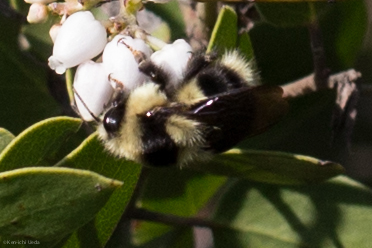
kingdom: Animalia
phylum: Arthropoda
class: Insecta
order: Hymenoptera
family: Apidae
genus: Bombus
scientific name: Bombus melanopygus
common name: Black tail bumble bee
